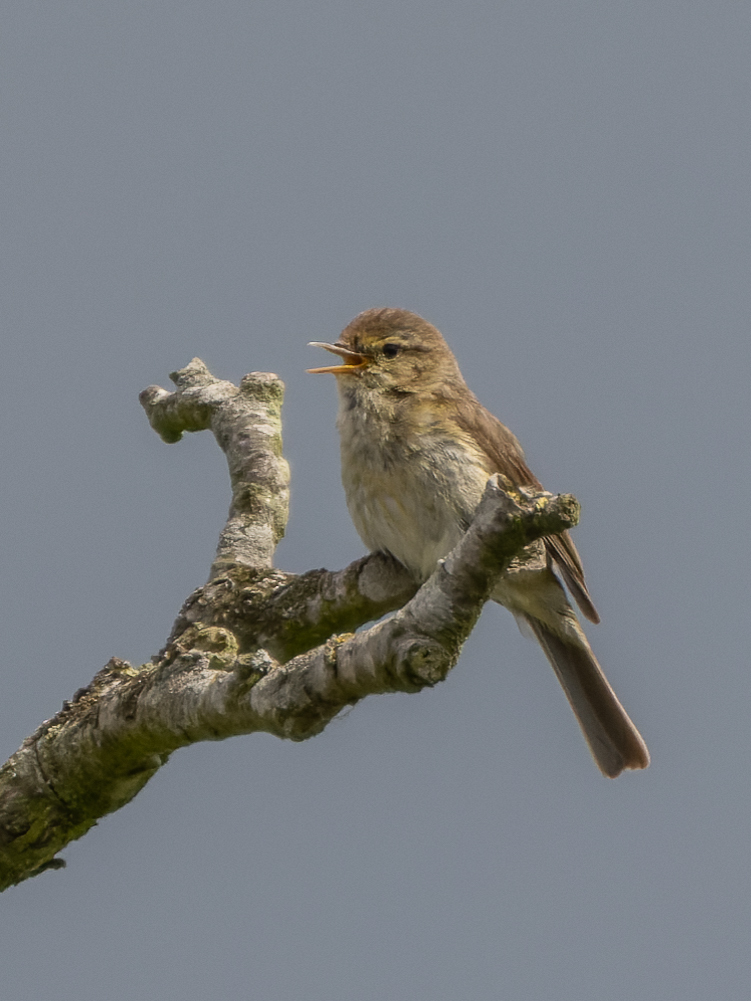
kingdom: Animalia
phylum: Chordata
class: Aves
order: Passeriformes
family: Phylloscopidae
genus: Phylloscopus
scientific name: Phylloscopus collybita
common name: Common chiffchaff
